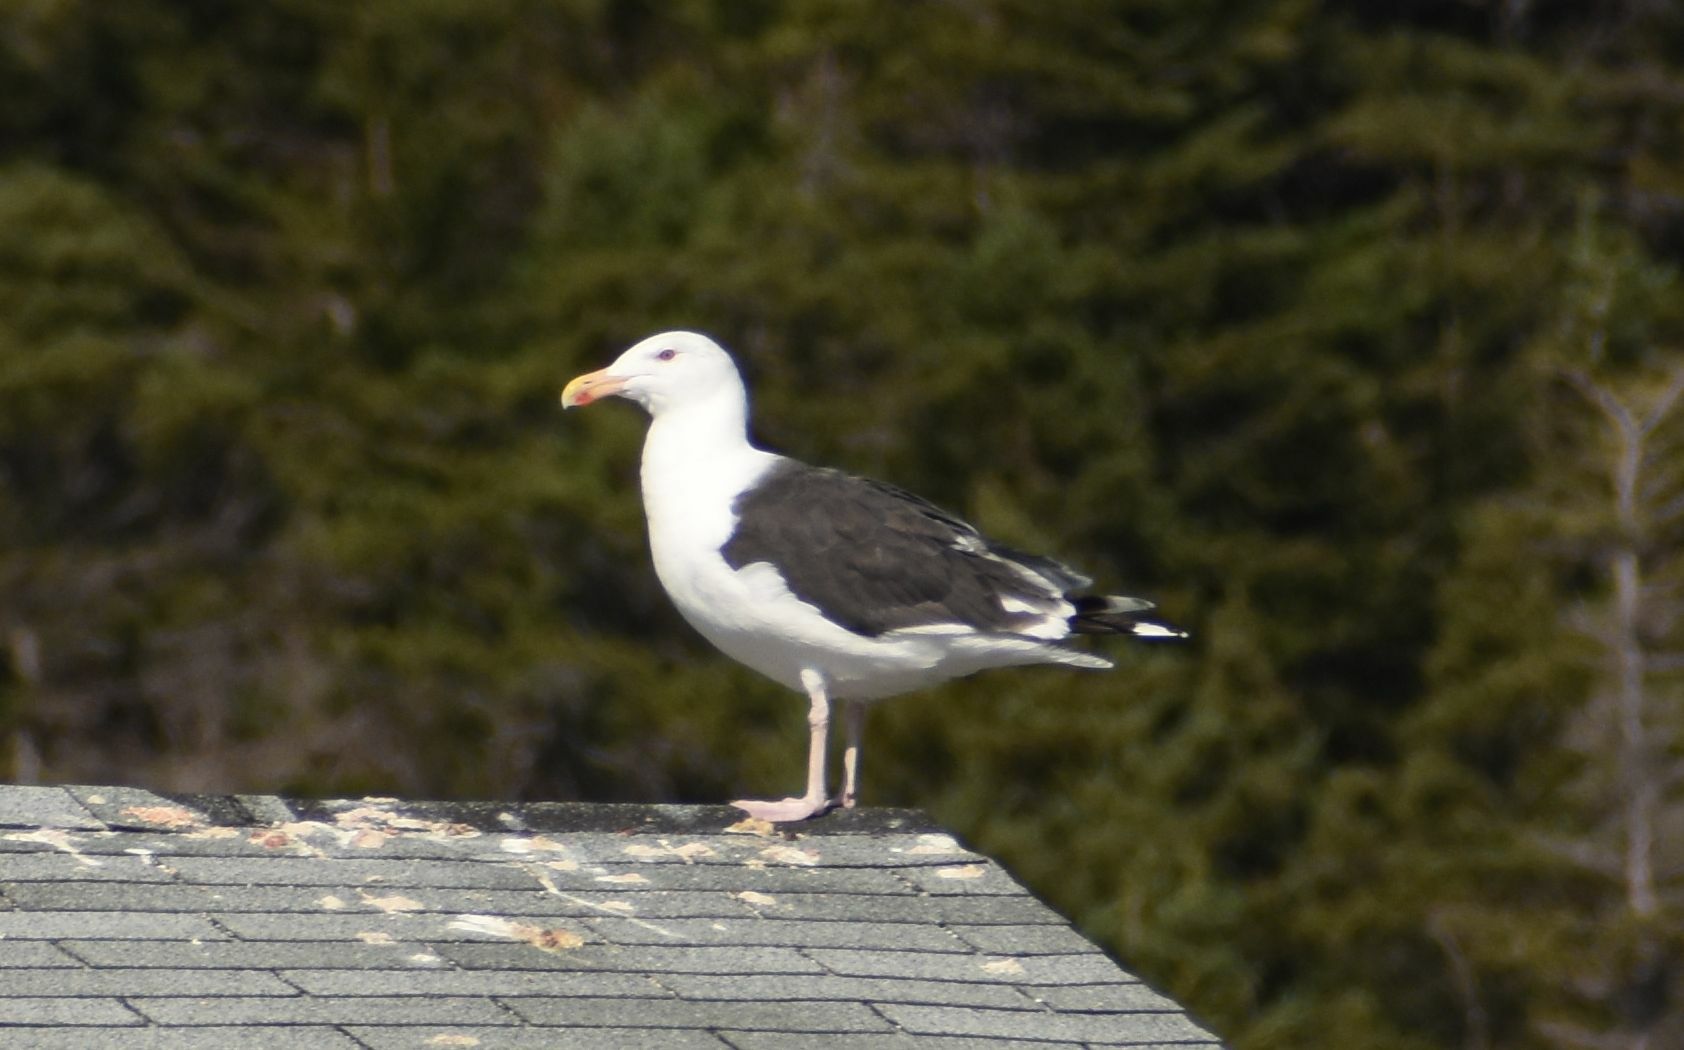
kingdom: Animalia
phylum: Chordata
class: Aves
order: Charadriiformes
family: Laridae
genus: Larus
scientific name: Larus marinus
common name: Great black-backed gull
